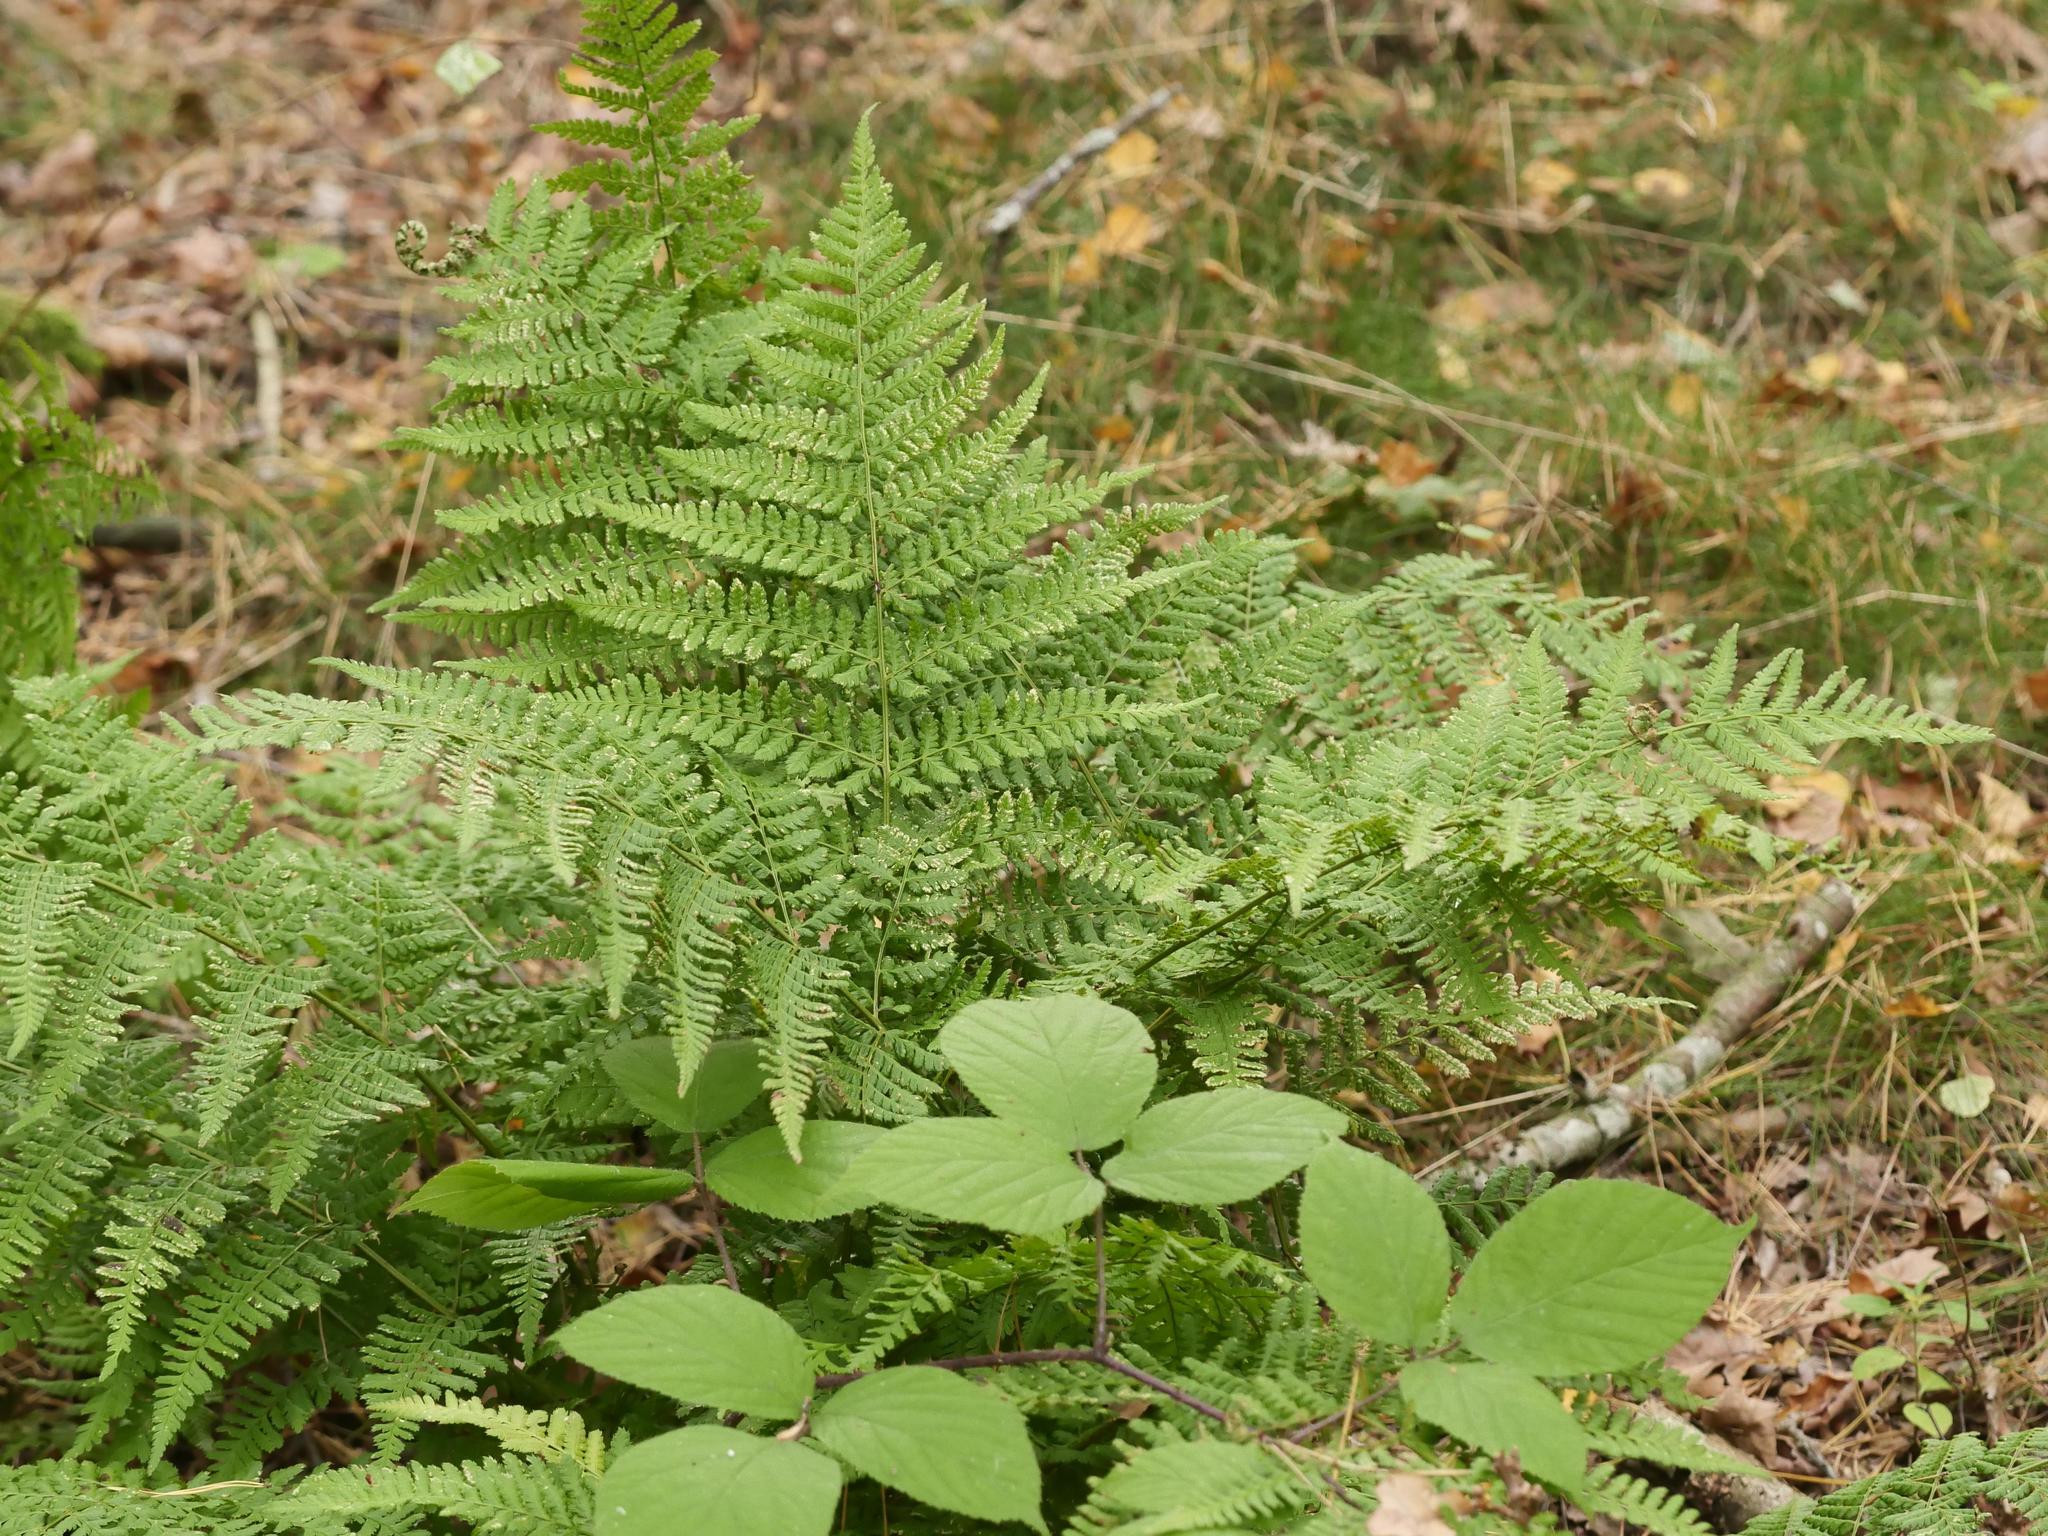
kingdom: Plantae
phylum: Tracheophyta
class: Polypodiopsida
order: Polypodiales
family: Dryopteridaceae
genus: Dryopteris
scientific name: Dryopteris dilatata
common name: Broad buckler-fern
